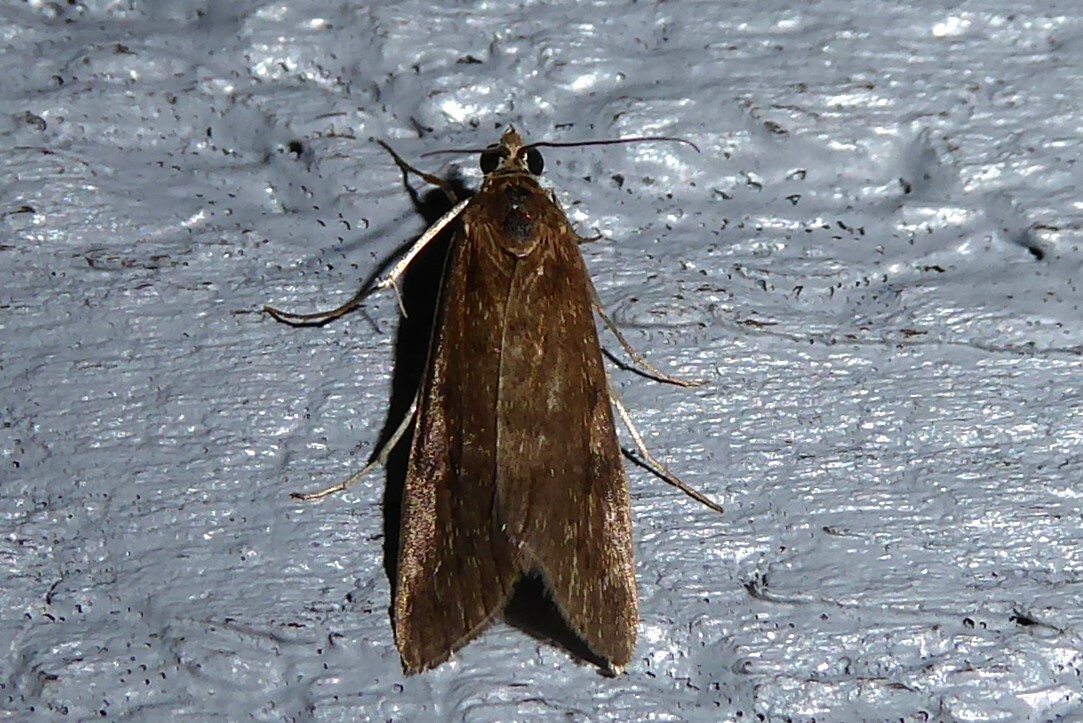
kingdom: Animalia
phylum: Arthropoda
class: Insecta
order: Lepidoptera
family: Crambidae
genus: Achyra
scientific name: Achyra affinitalis
